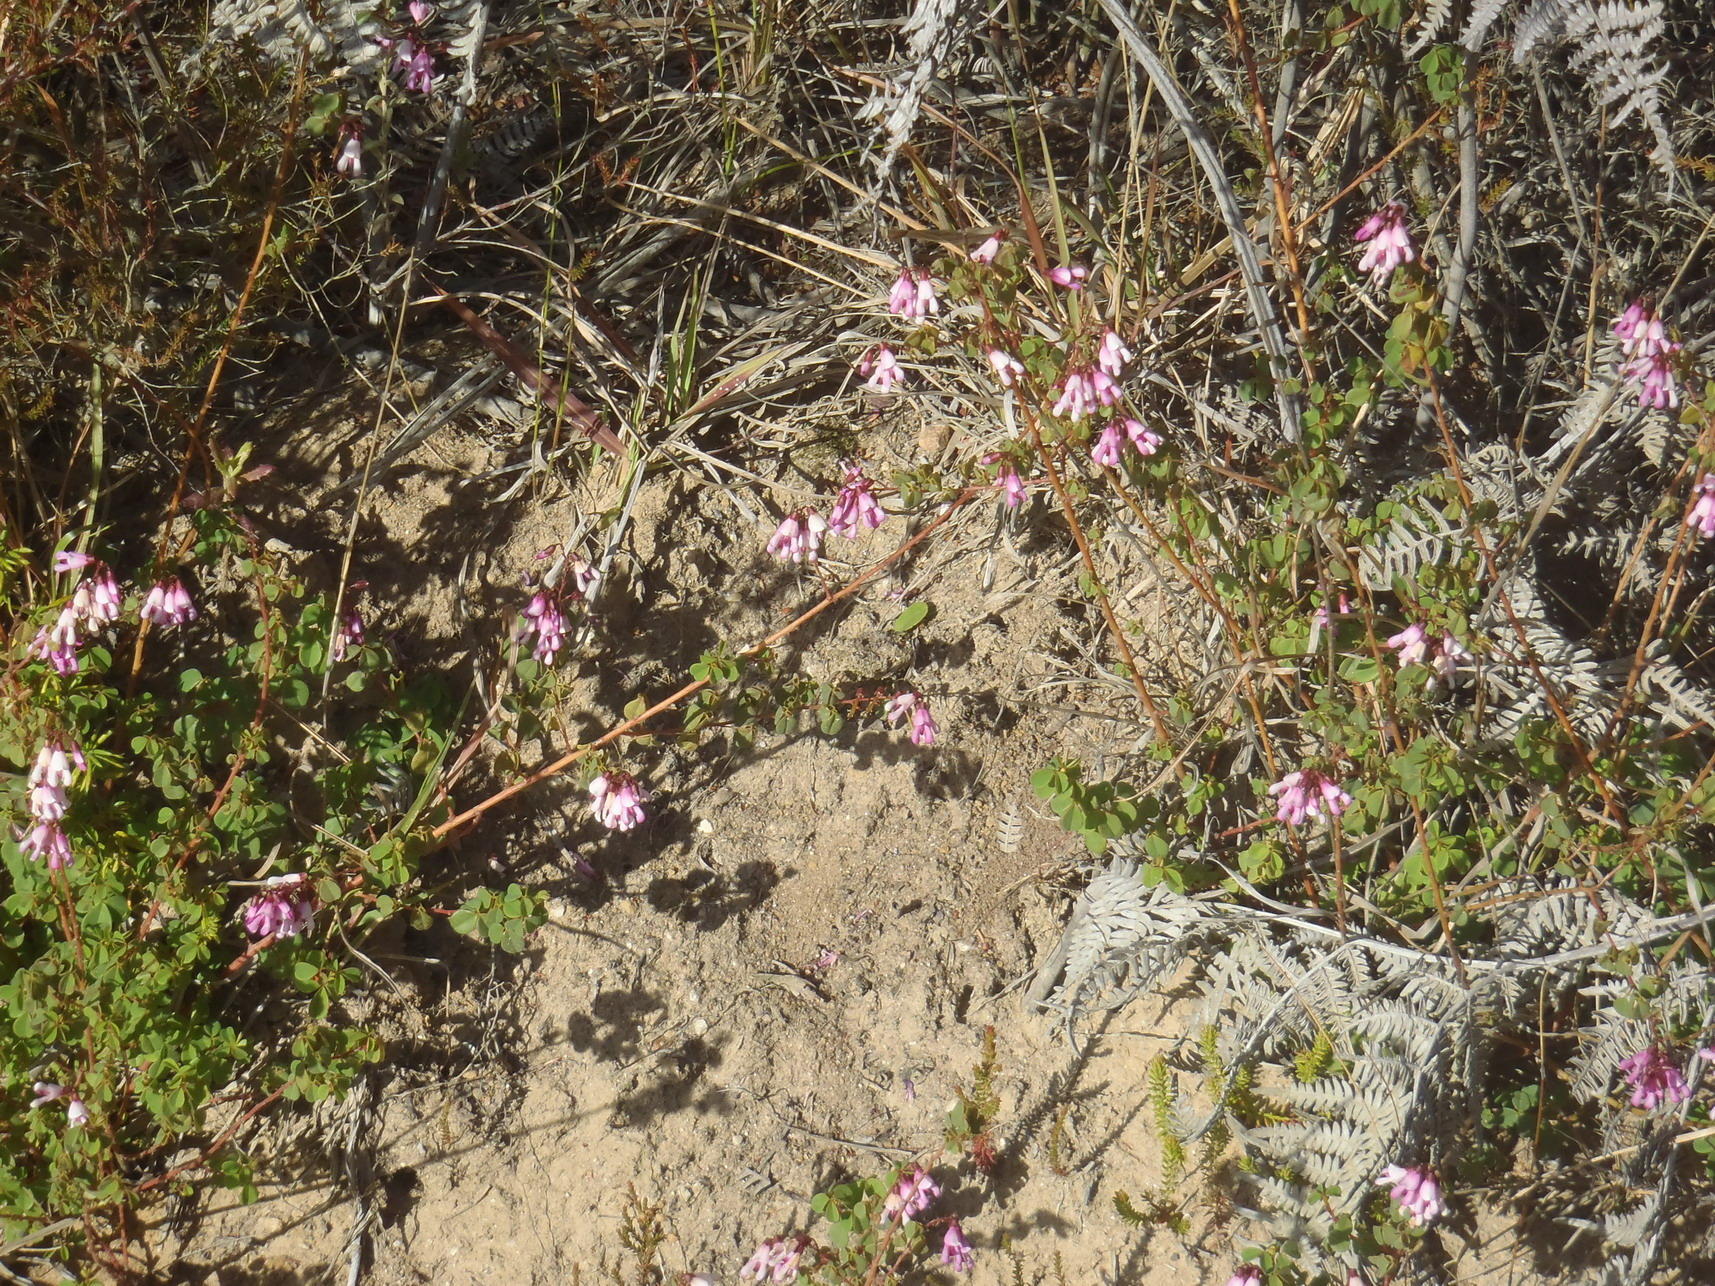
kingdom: Plantae
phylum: Tracheophyta
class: Magnoliopsida
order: Fabales
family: Fabaceae
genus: Hypocalyptus
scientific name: Hypocalyptus oxalidifolius
